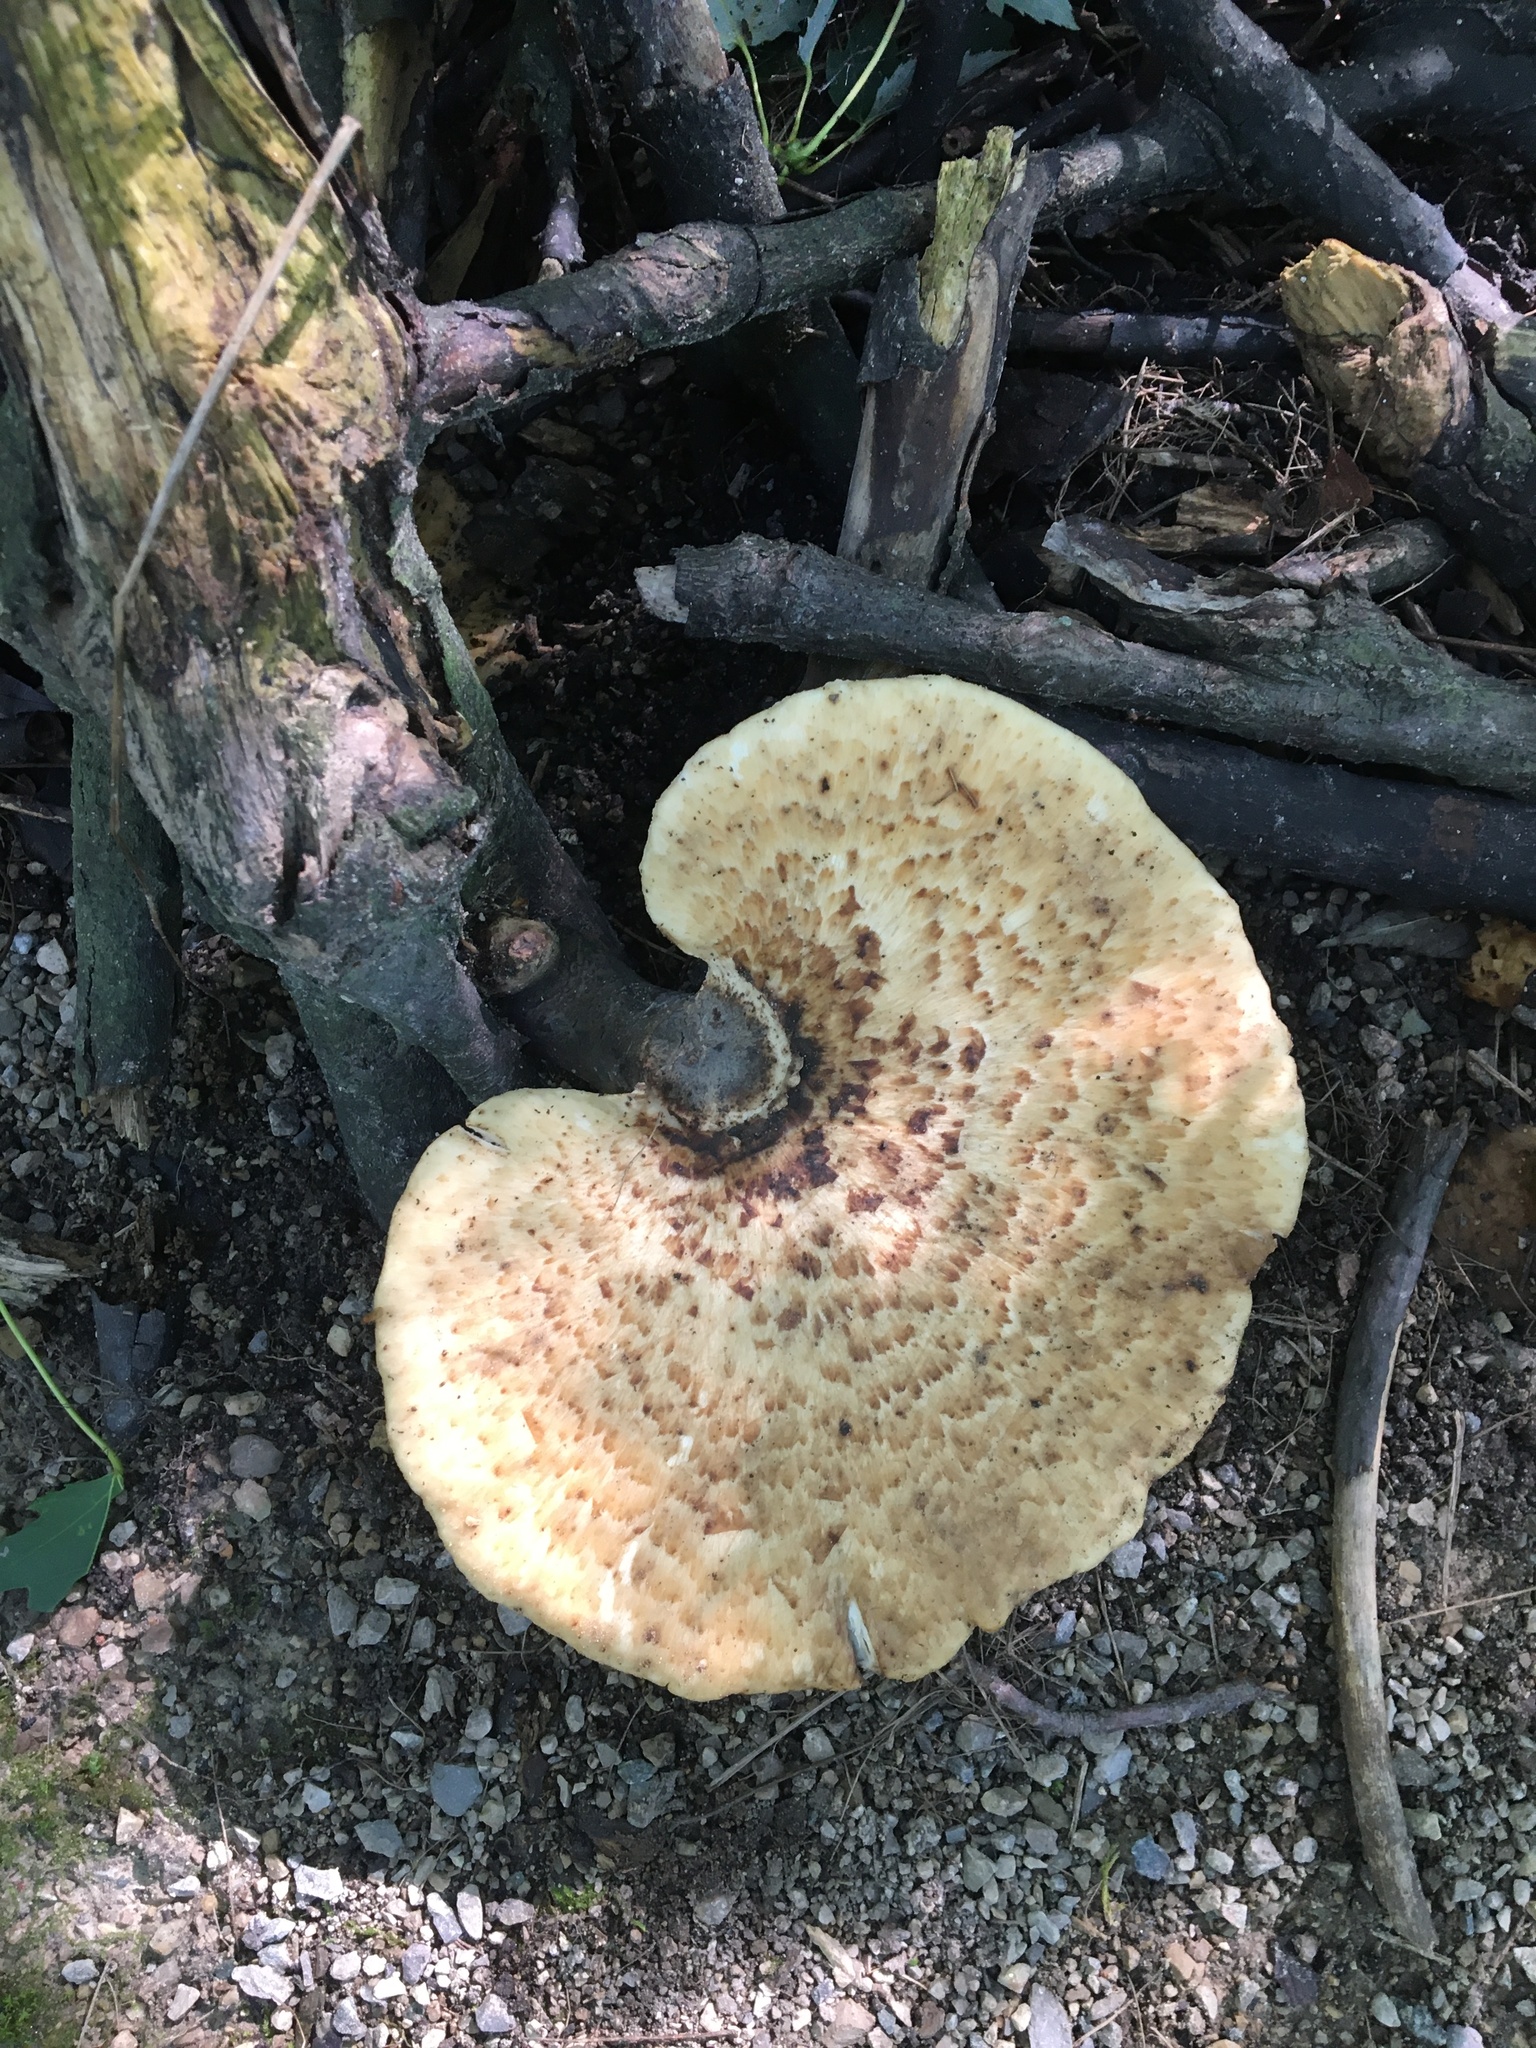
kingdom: Fungi
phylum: Basidiomycota
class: Agaricomycetes
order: Polyporales
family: Polyporaceae
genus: Cerioporus
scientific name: Cerioporus squamosus
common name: Dryad's saddle
